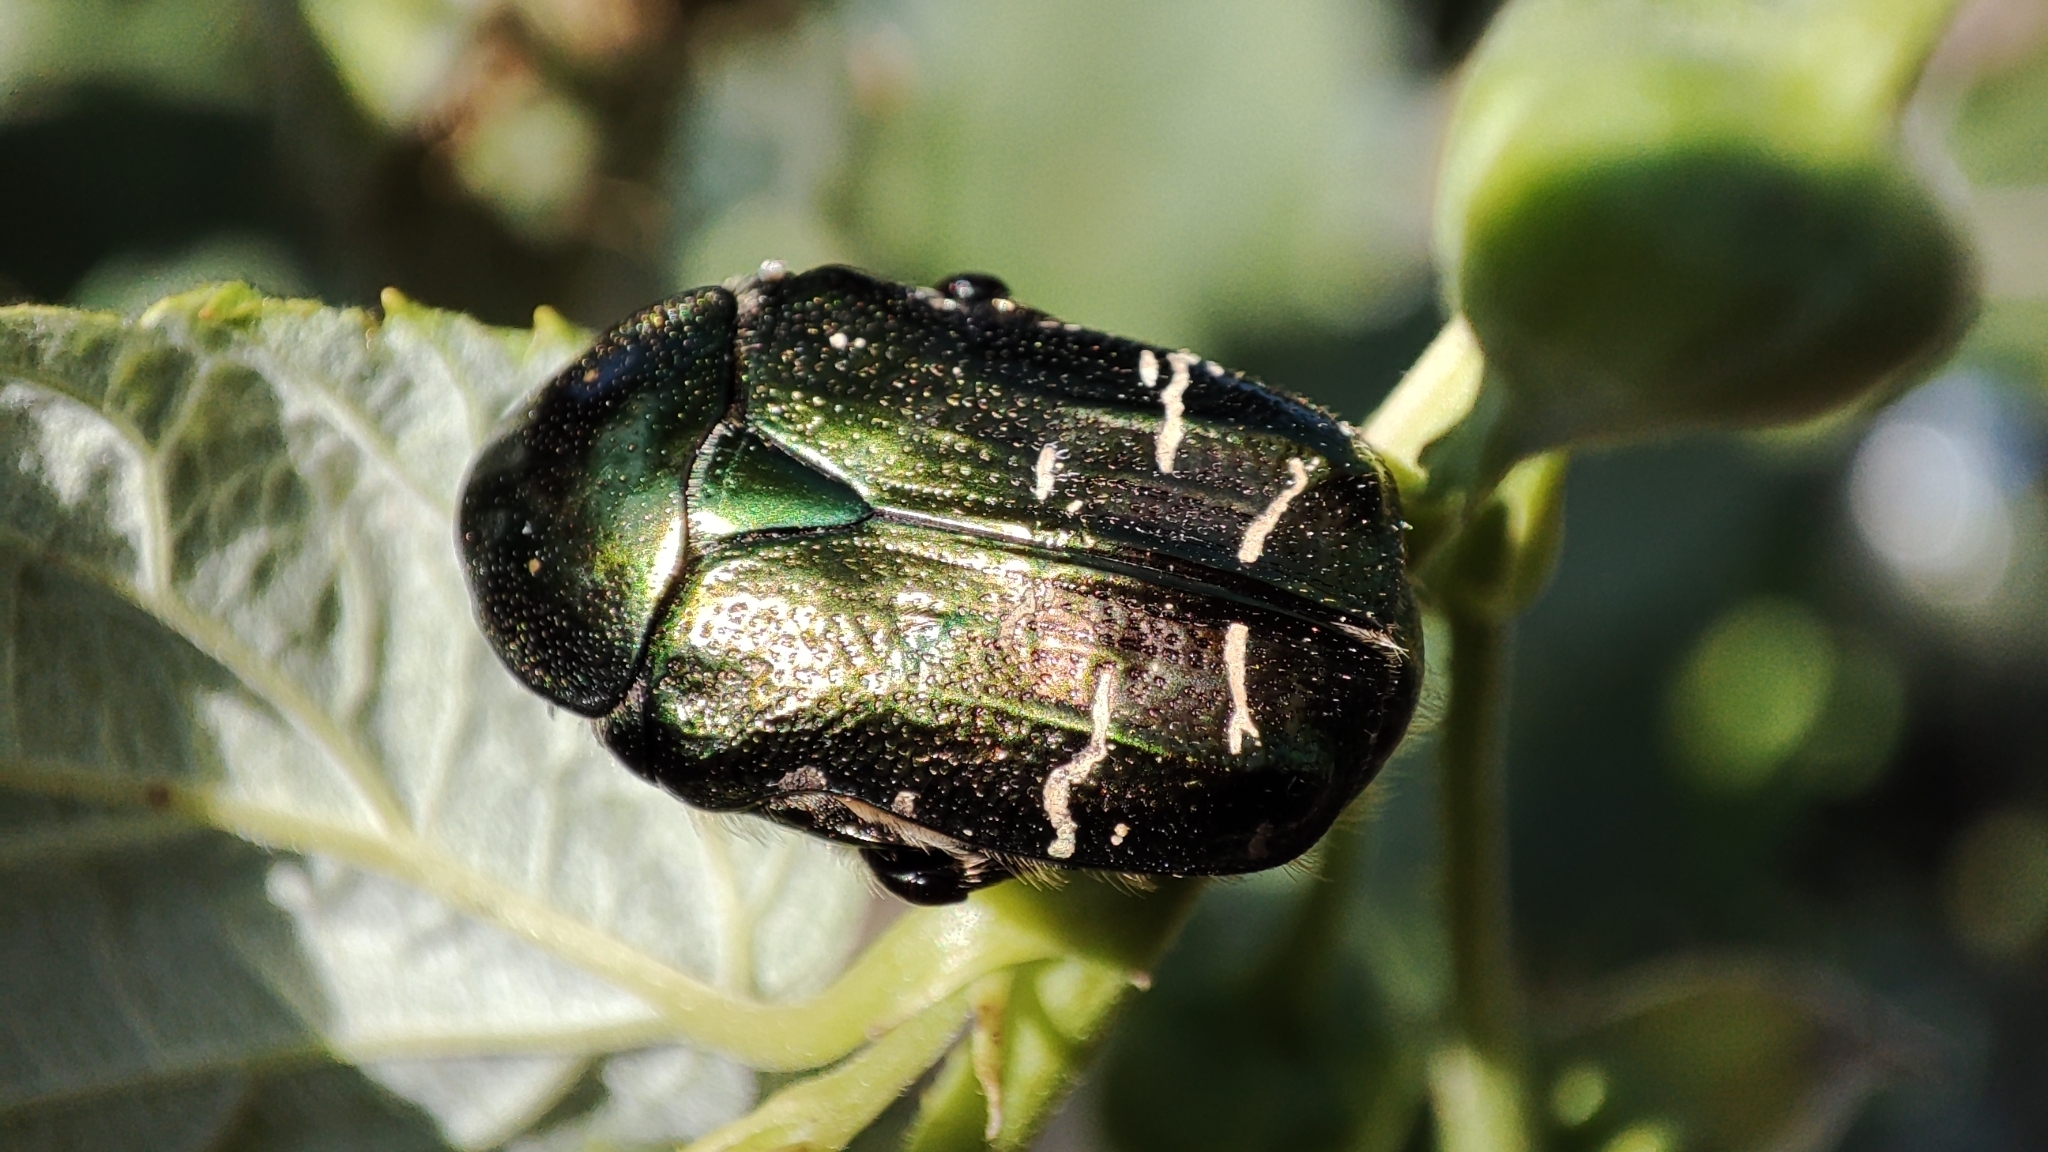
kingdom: Animalia
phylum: Arthropoda
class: Insecta
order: Coleoptera
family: Scarabaeidae
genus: Cetonia
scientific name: Cetonia aurata
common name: Rose chafer
